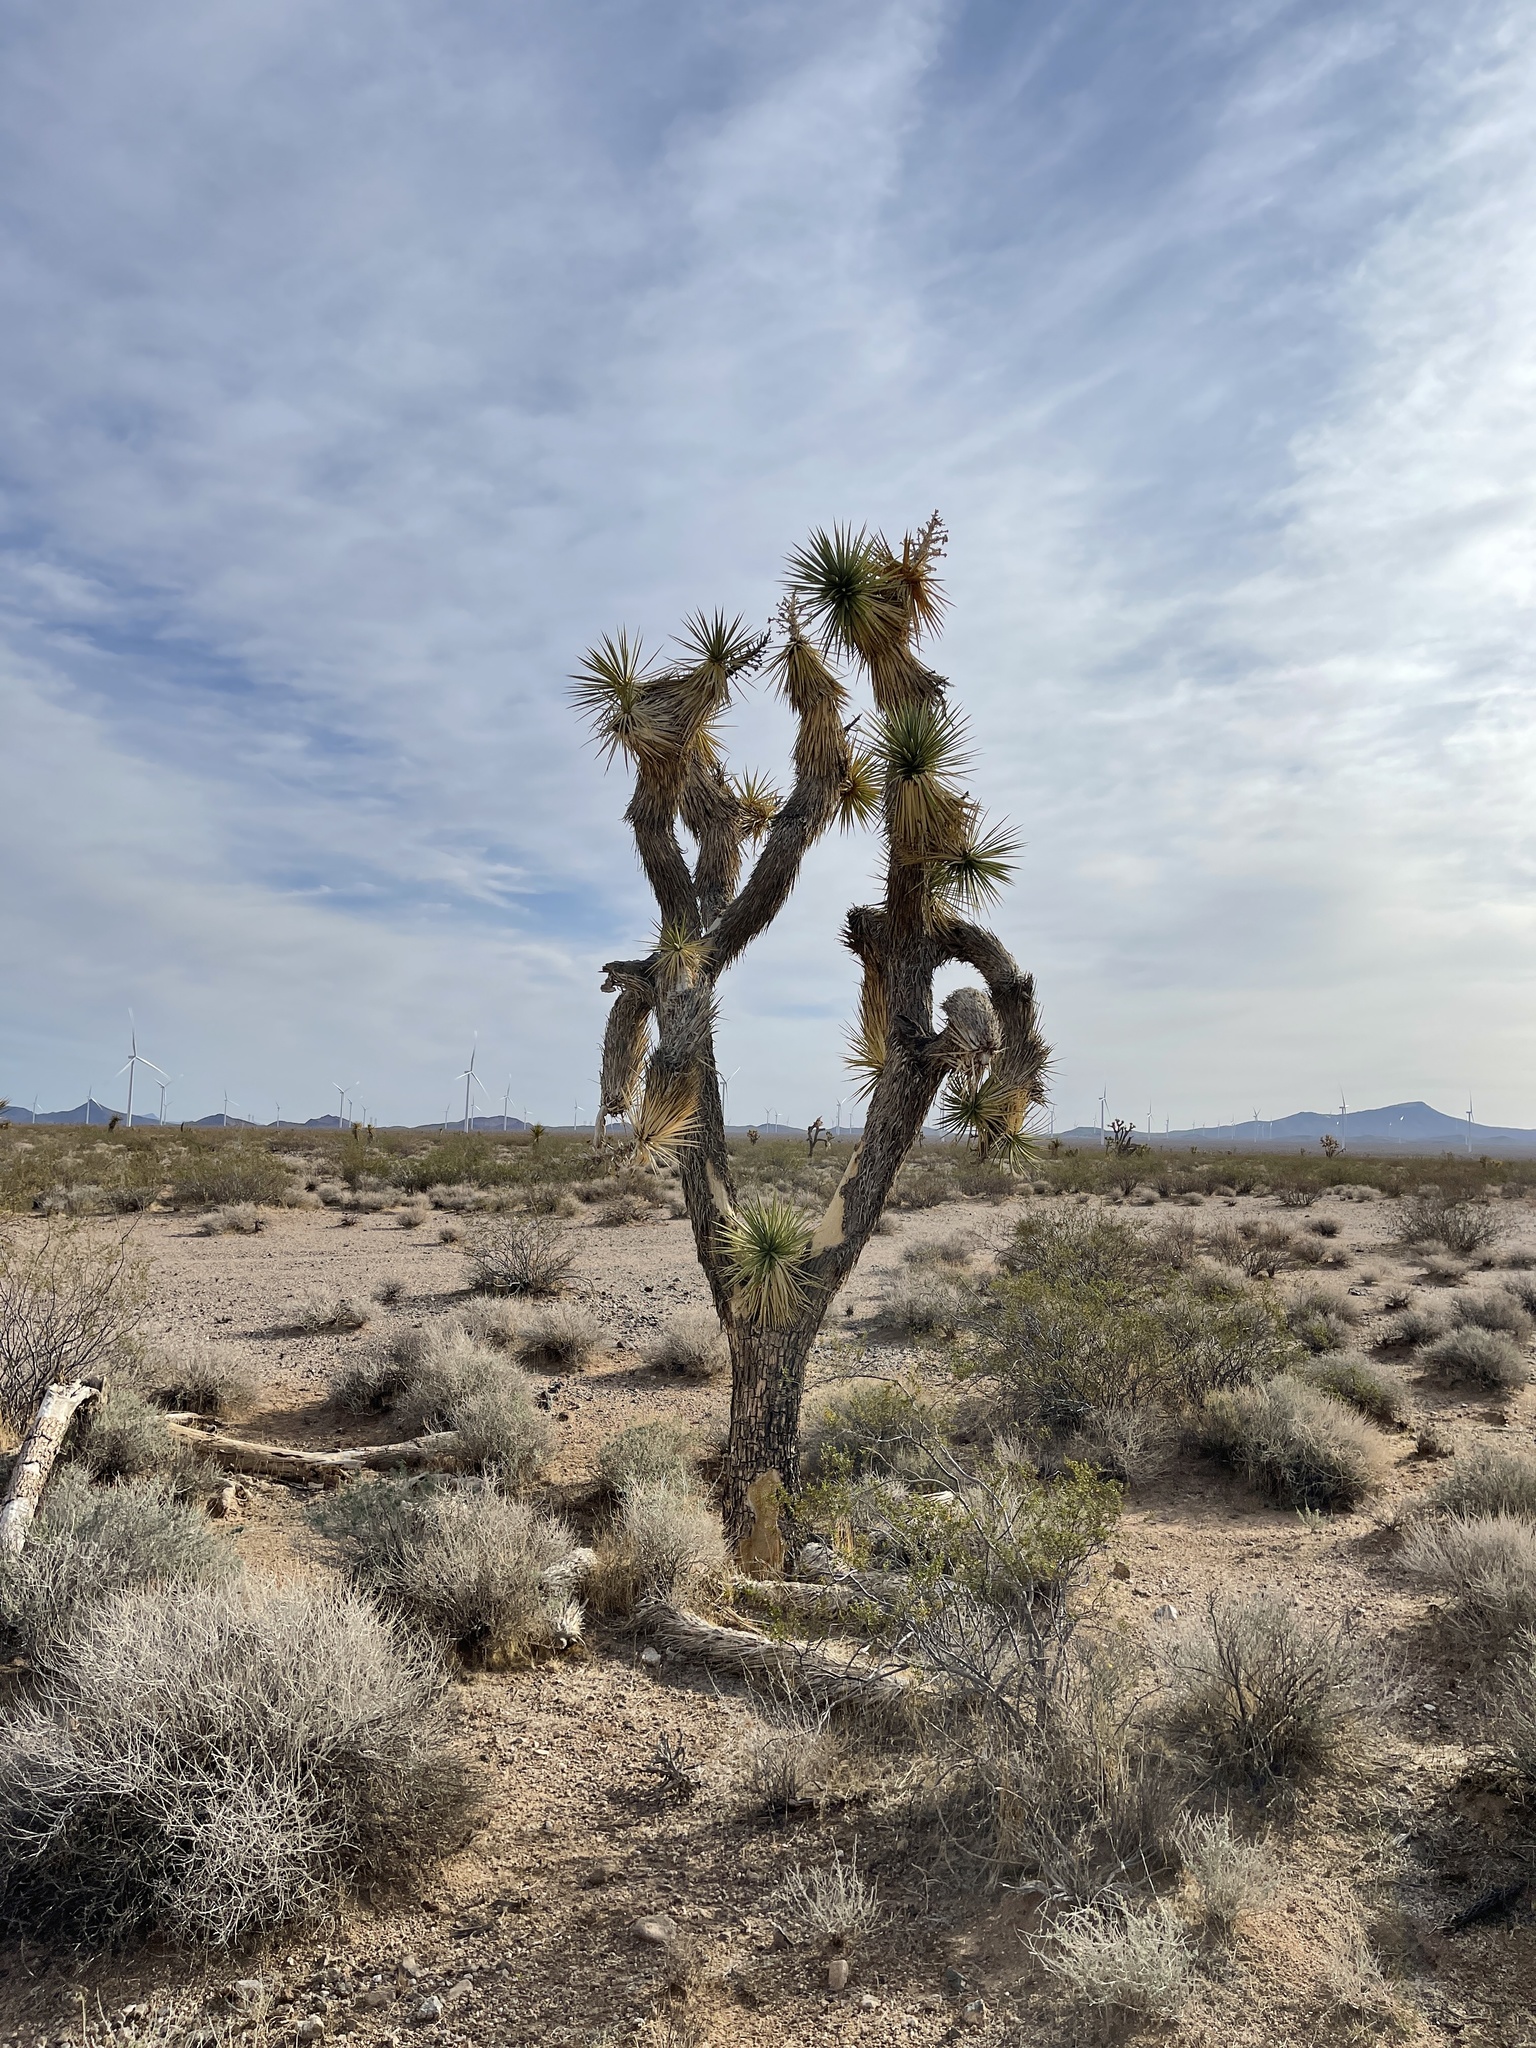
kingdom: Plantae
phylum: Tracheophyta
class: Liliopsida
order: Asparagales
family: Asparagaceae
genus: Yucca
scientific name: Yucca brevifolia
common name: Joshua tree
